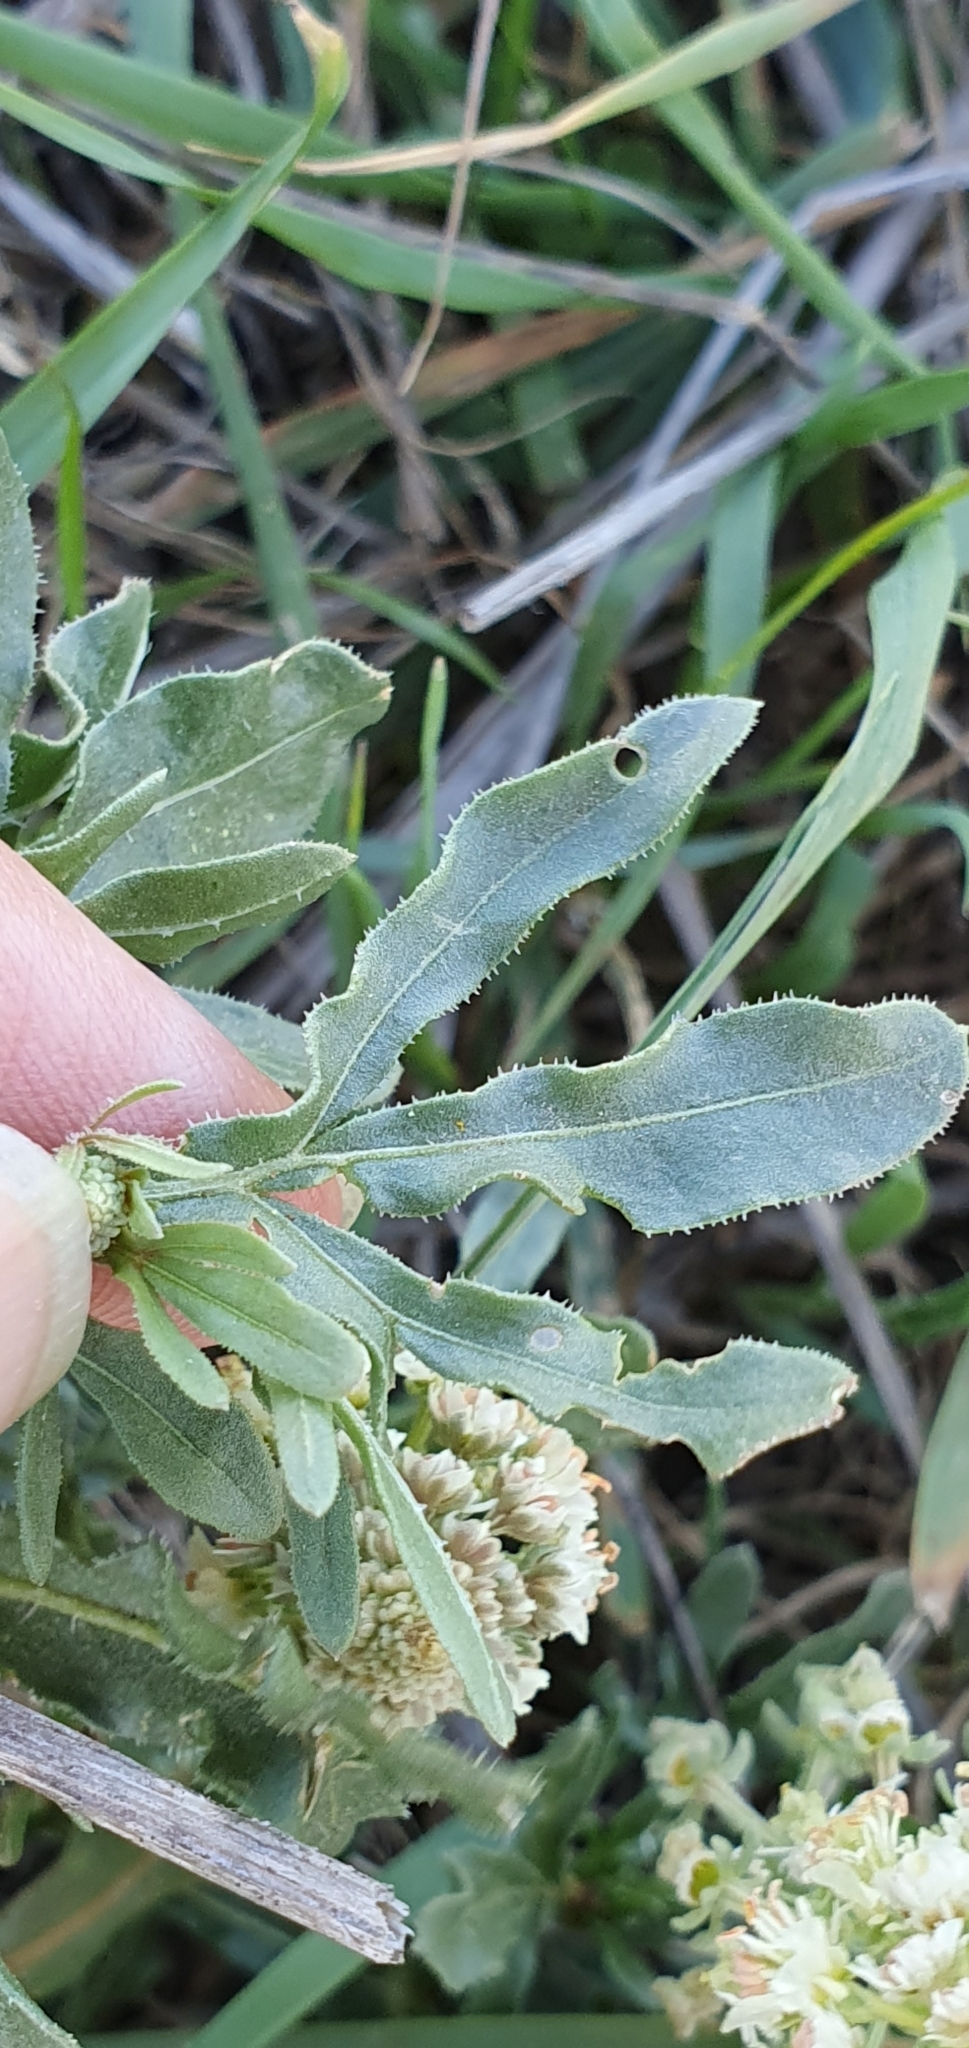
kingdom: Plantae
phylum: Tracheophyta
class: Magnoliopsida
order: Brassicales
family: Resedaceae
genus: Reseda
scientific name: Reseda duriaeana
